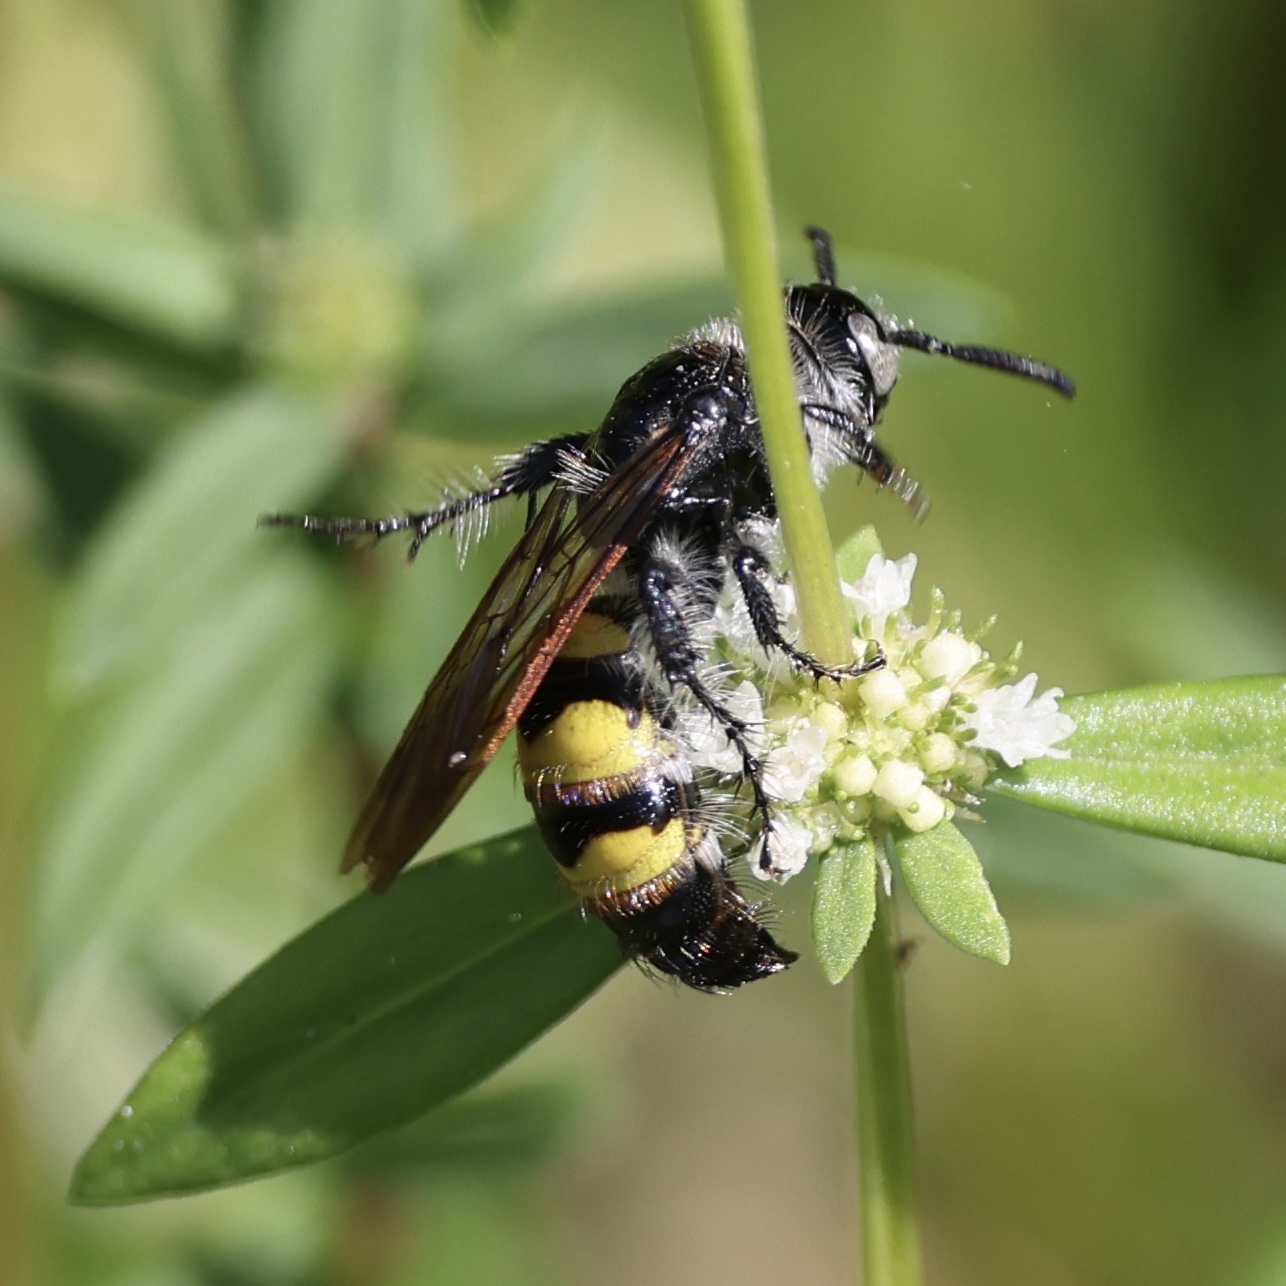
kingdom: Animalia
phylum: Arthropoda
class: Insecta
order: Hymenoptera
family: Scoliidae
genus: Dielis
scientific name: Dielis
